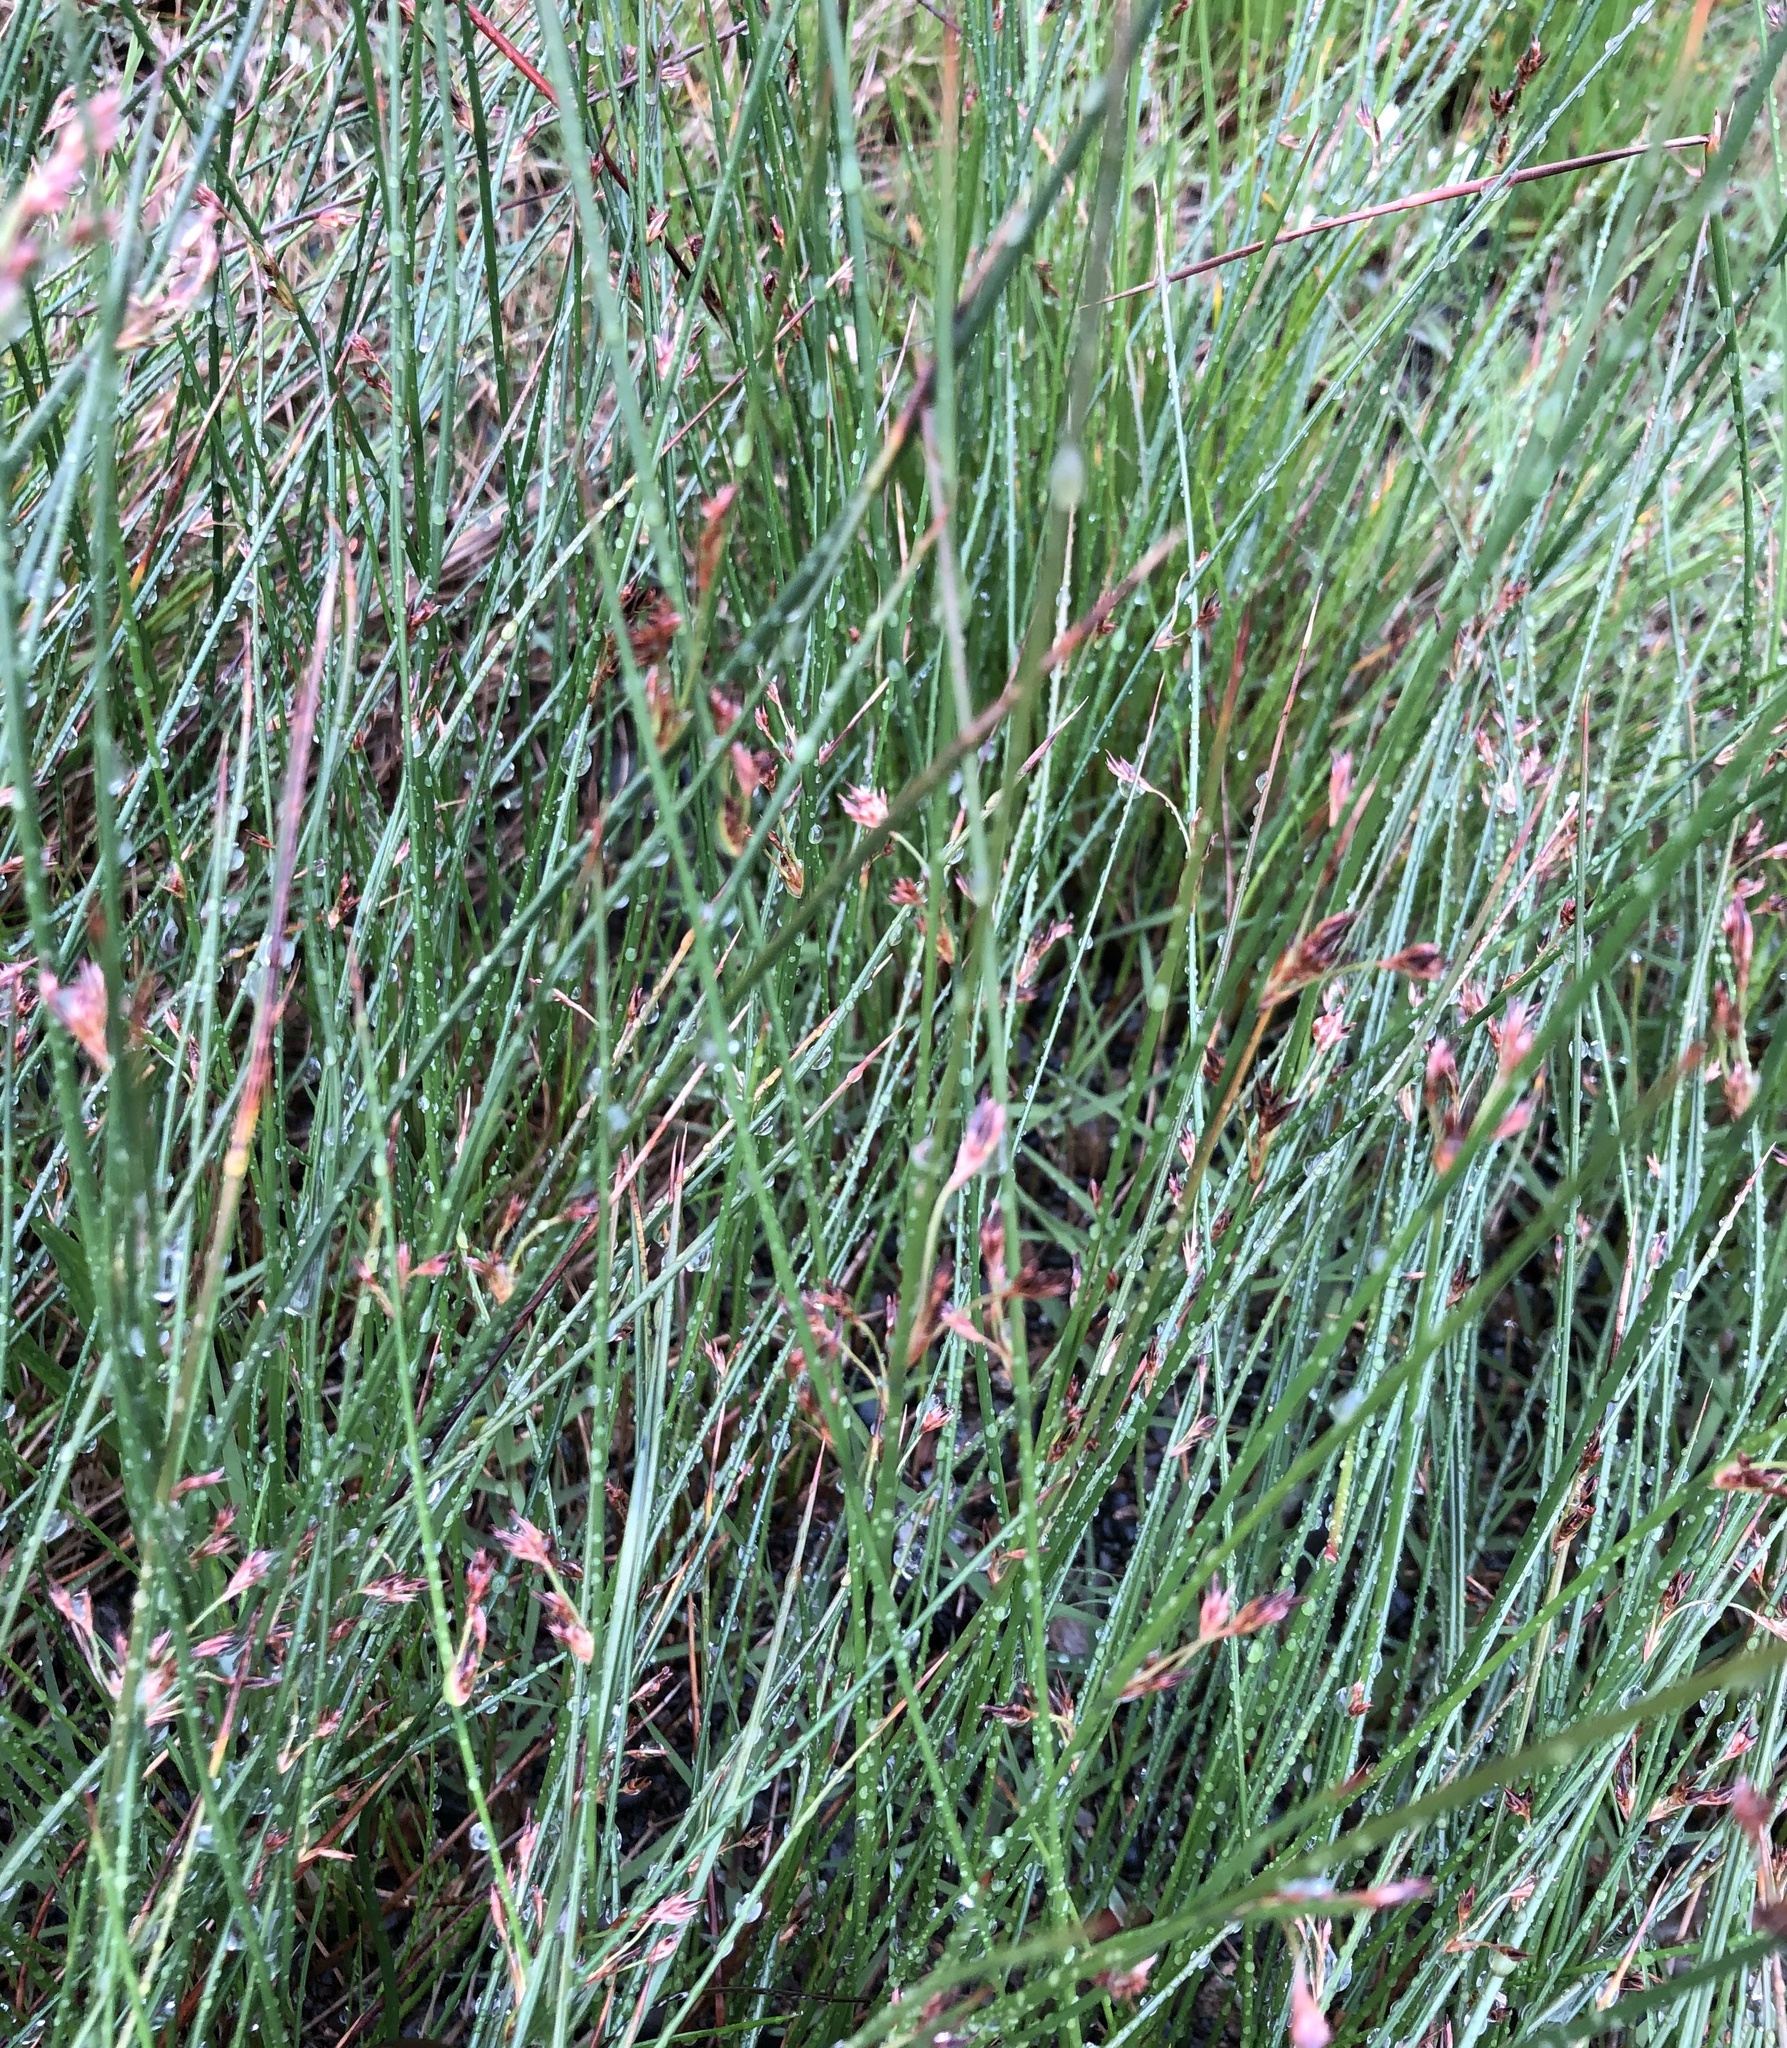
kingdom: Plantae
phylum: Tracheophyta
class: Liliopsida
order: Poales
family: Juncaceae
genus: Juncus
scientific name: Juncus balticus
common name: Baltic rush
